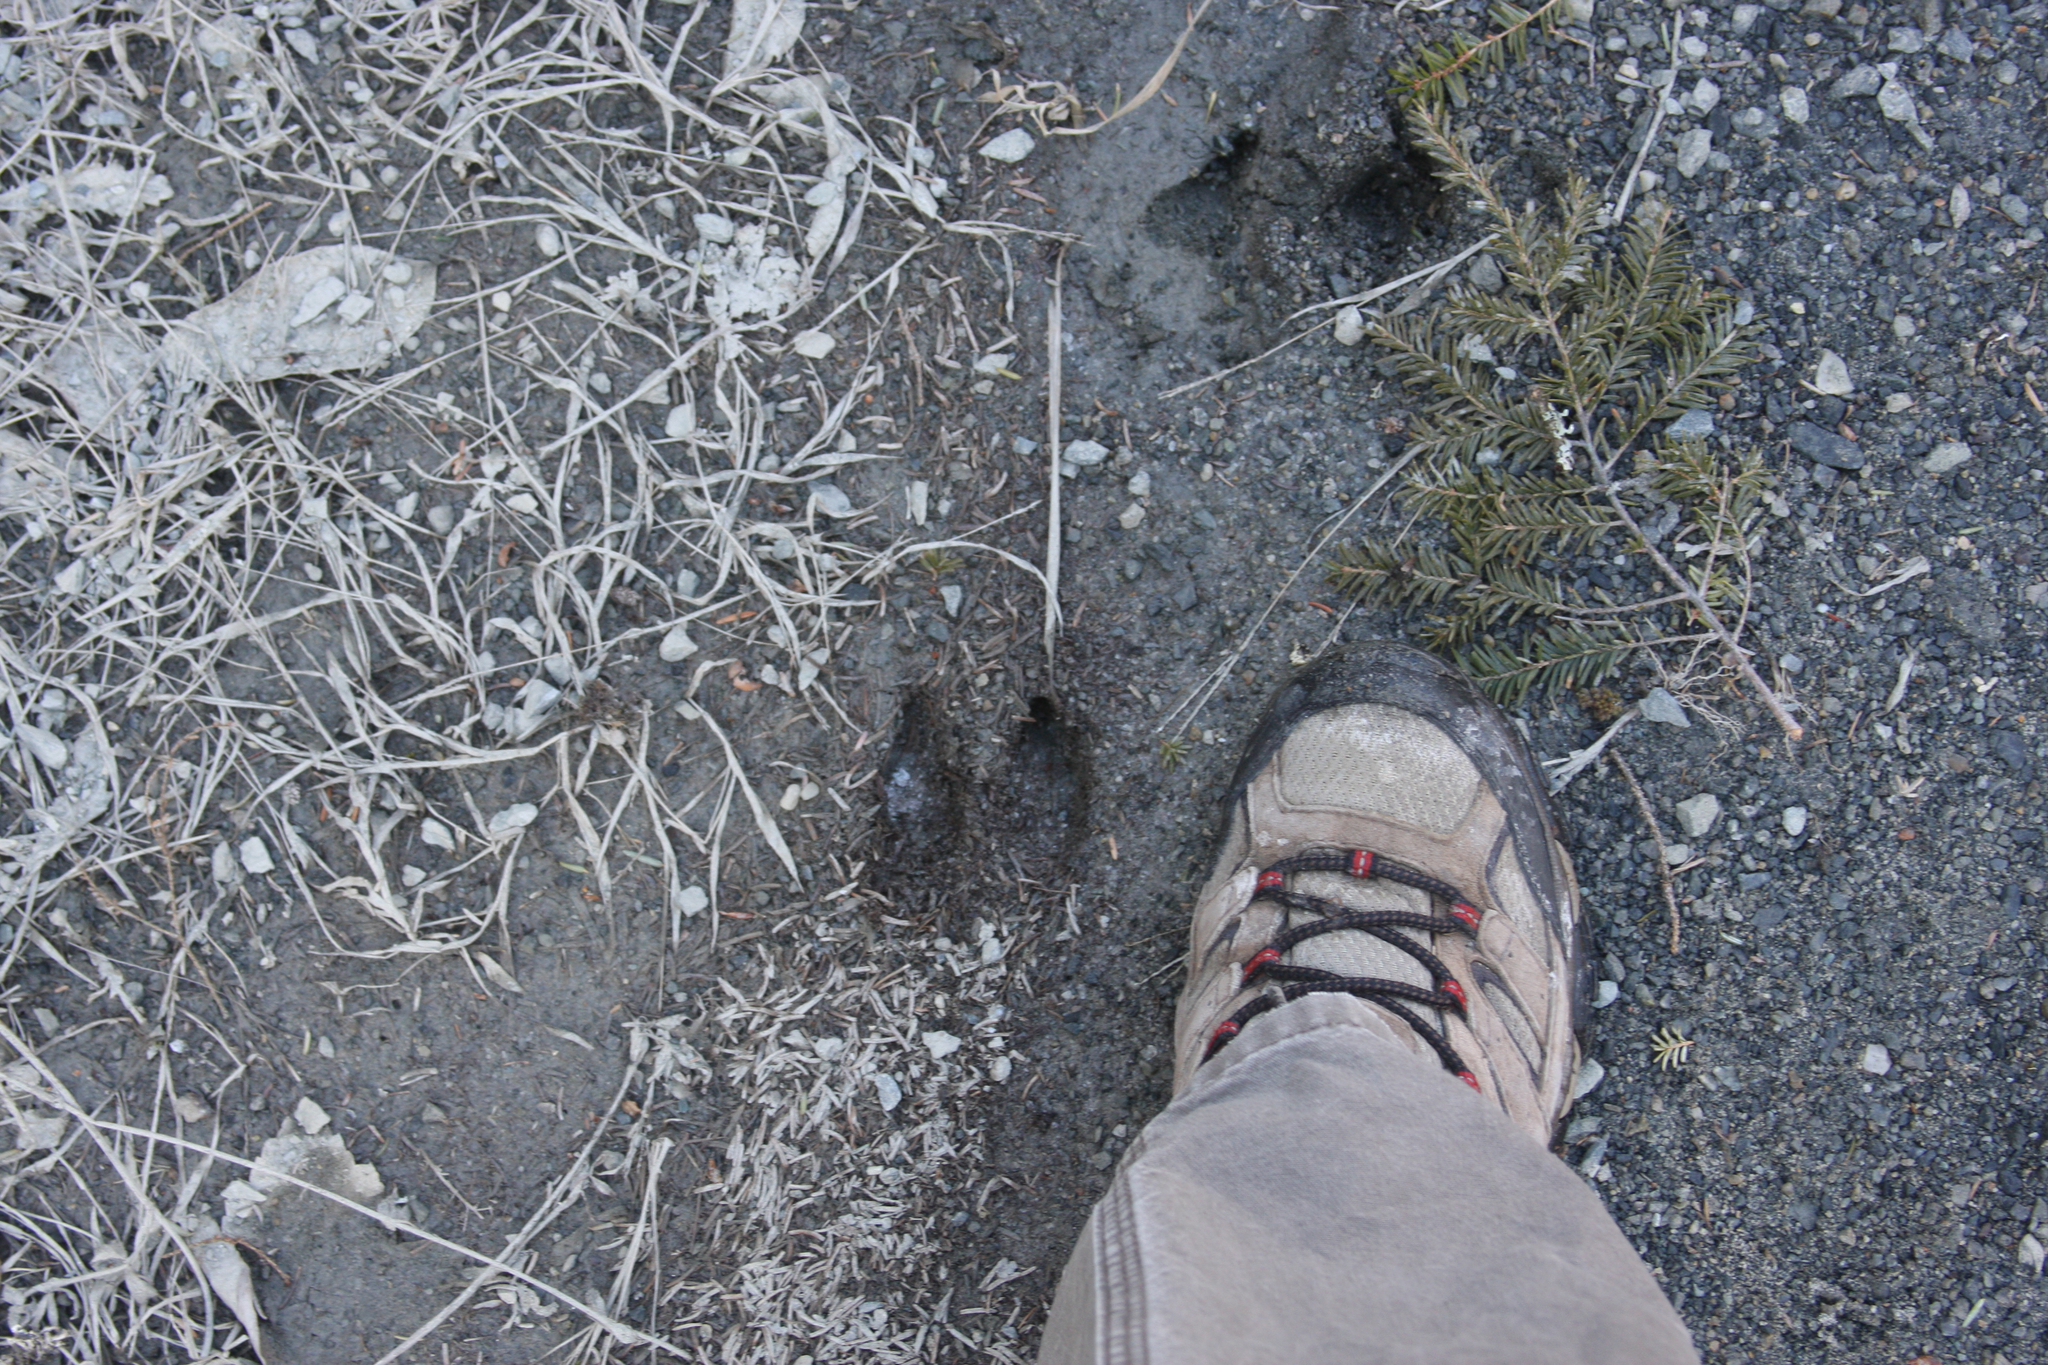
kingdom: Animalia
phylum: Chordata
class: Mammalia
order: Artiodactyla
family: Cervidae
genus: Odocoileus
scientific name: Odocoileus virginianus
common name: White-tailed deer
